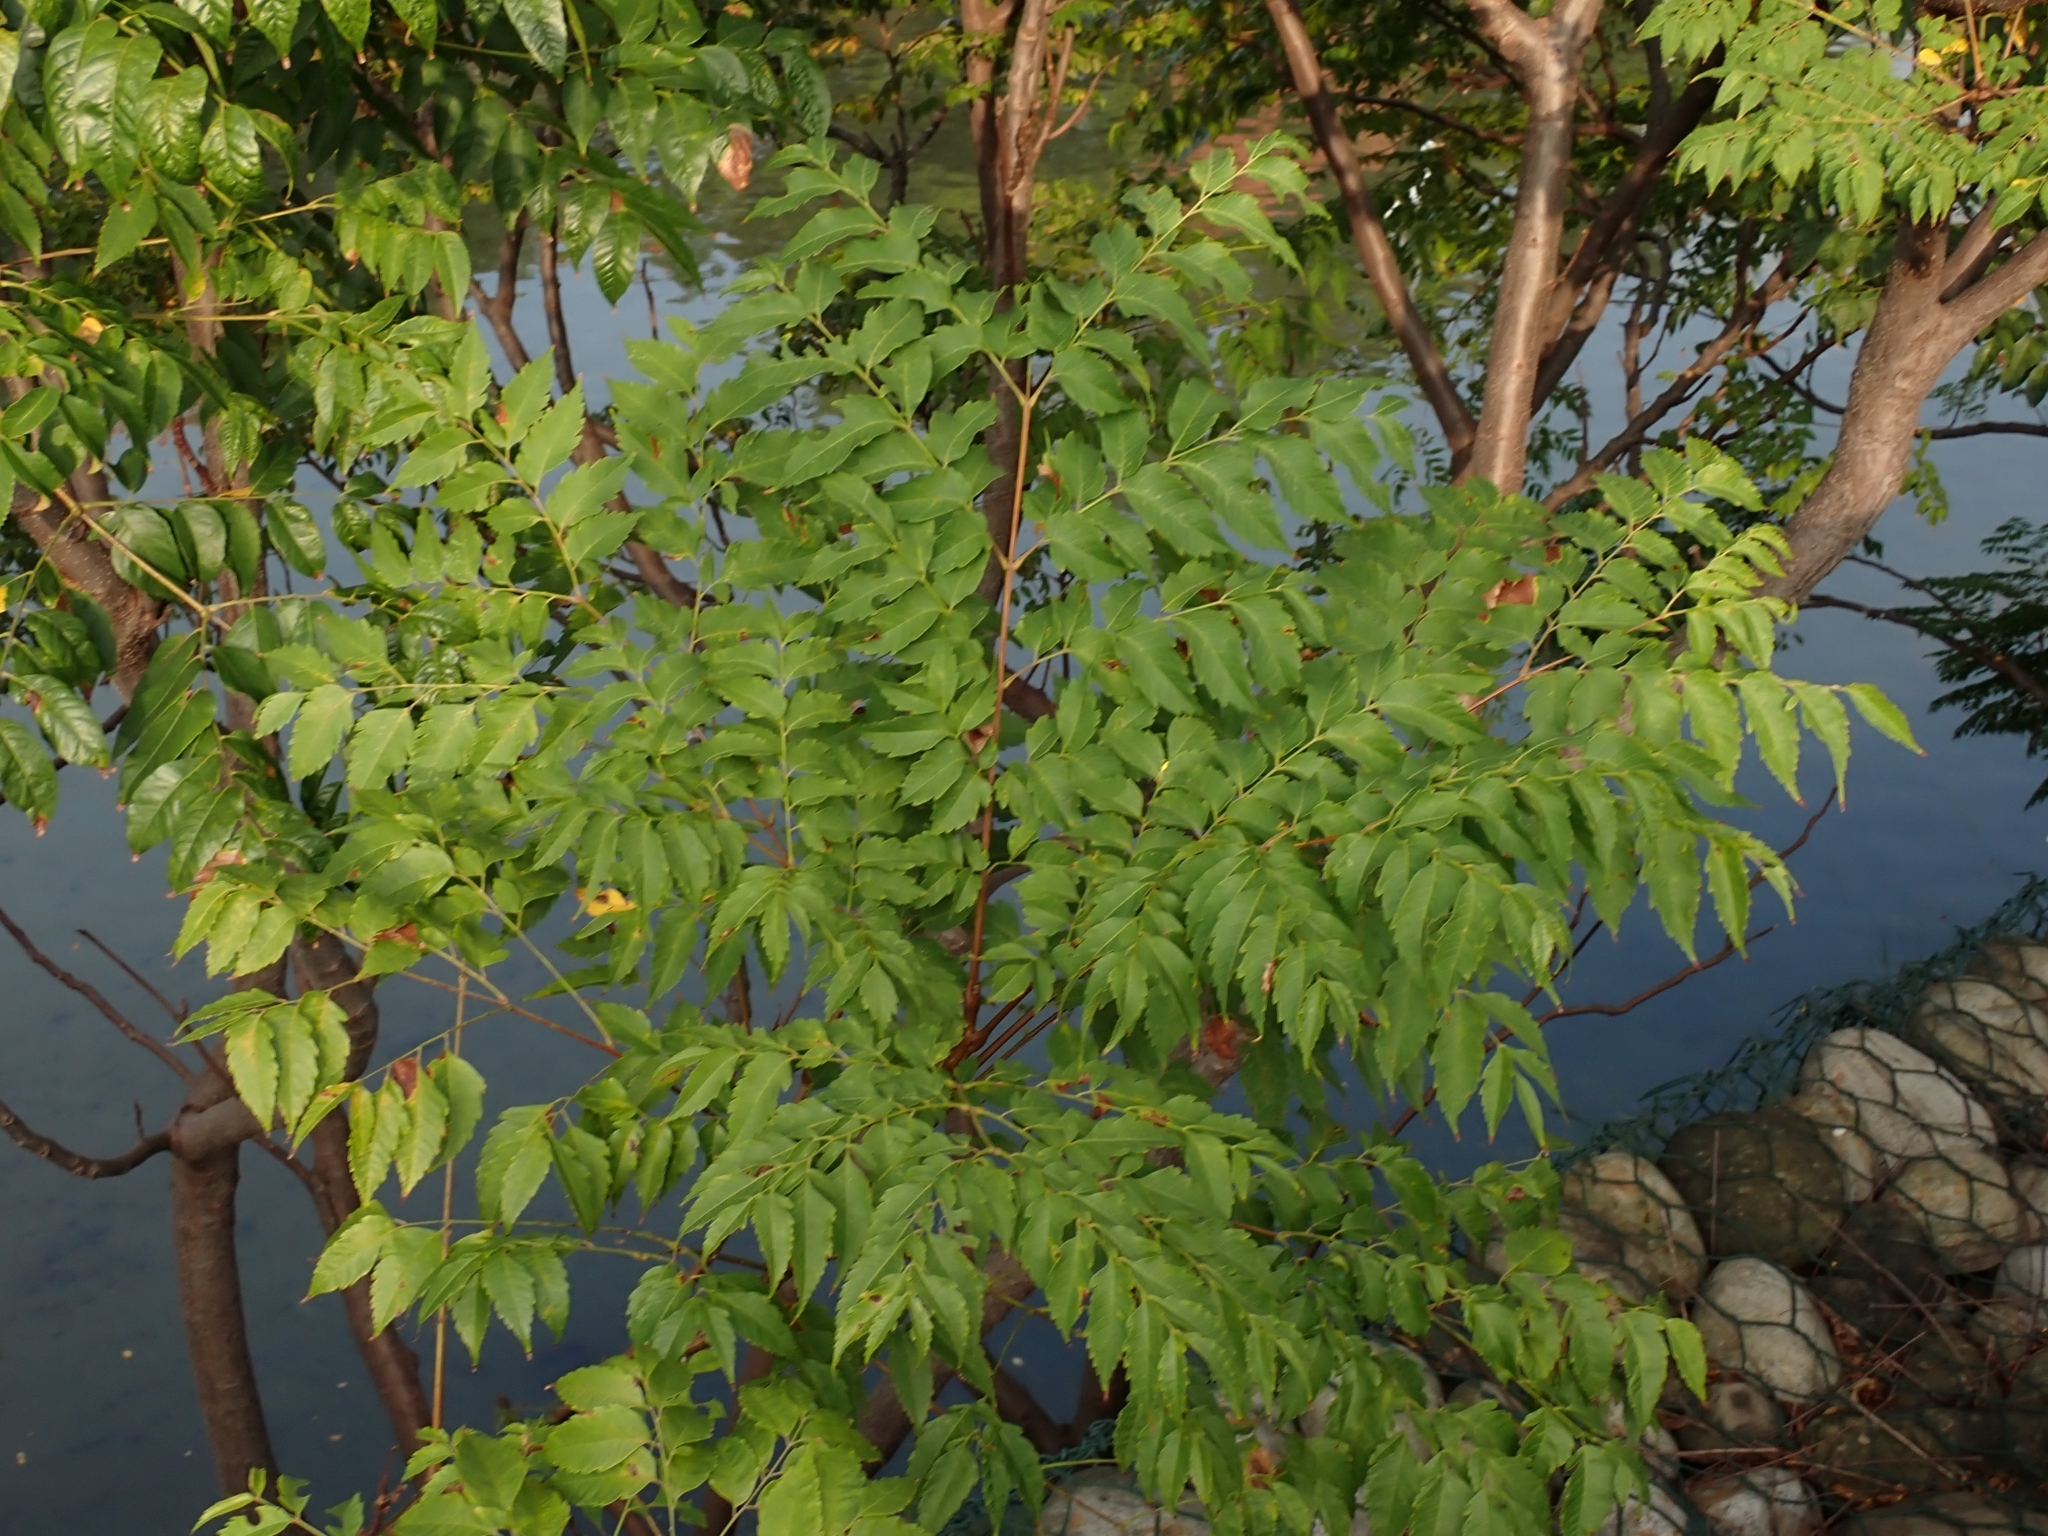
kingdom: Plantae
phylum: Tracheophyta
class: Magnoliopsida
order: Sapindales
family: Sapindaceae
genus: Koelreuteria
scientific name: Koelreuteria elegans
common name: Chinese flame tree
